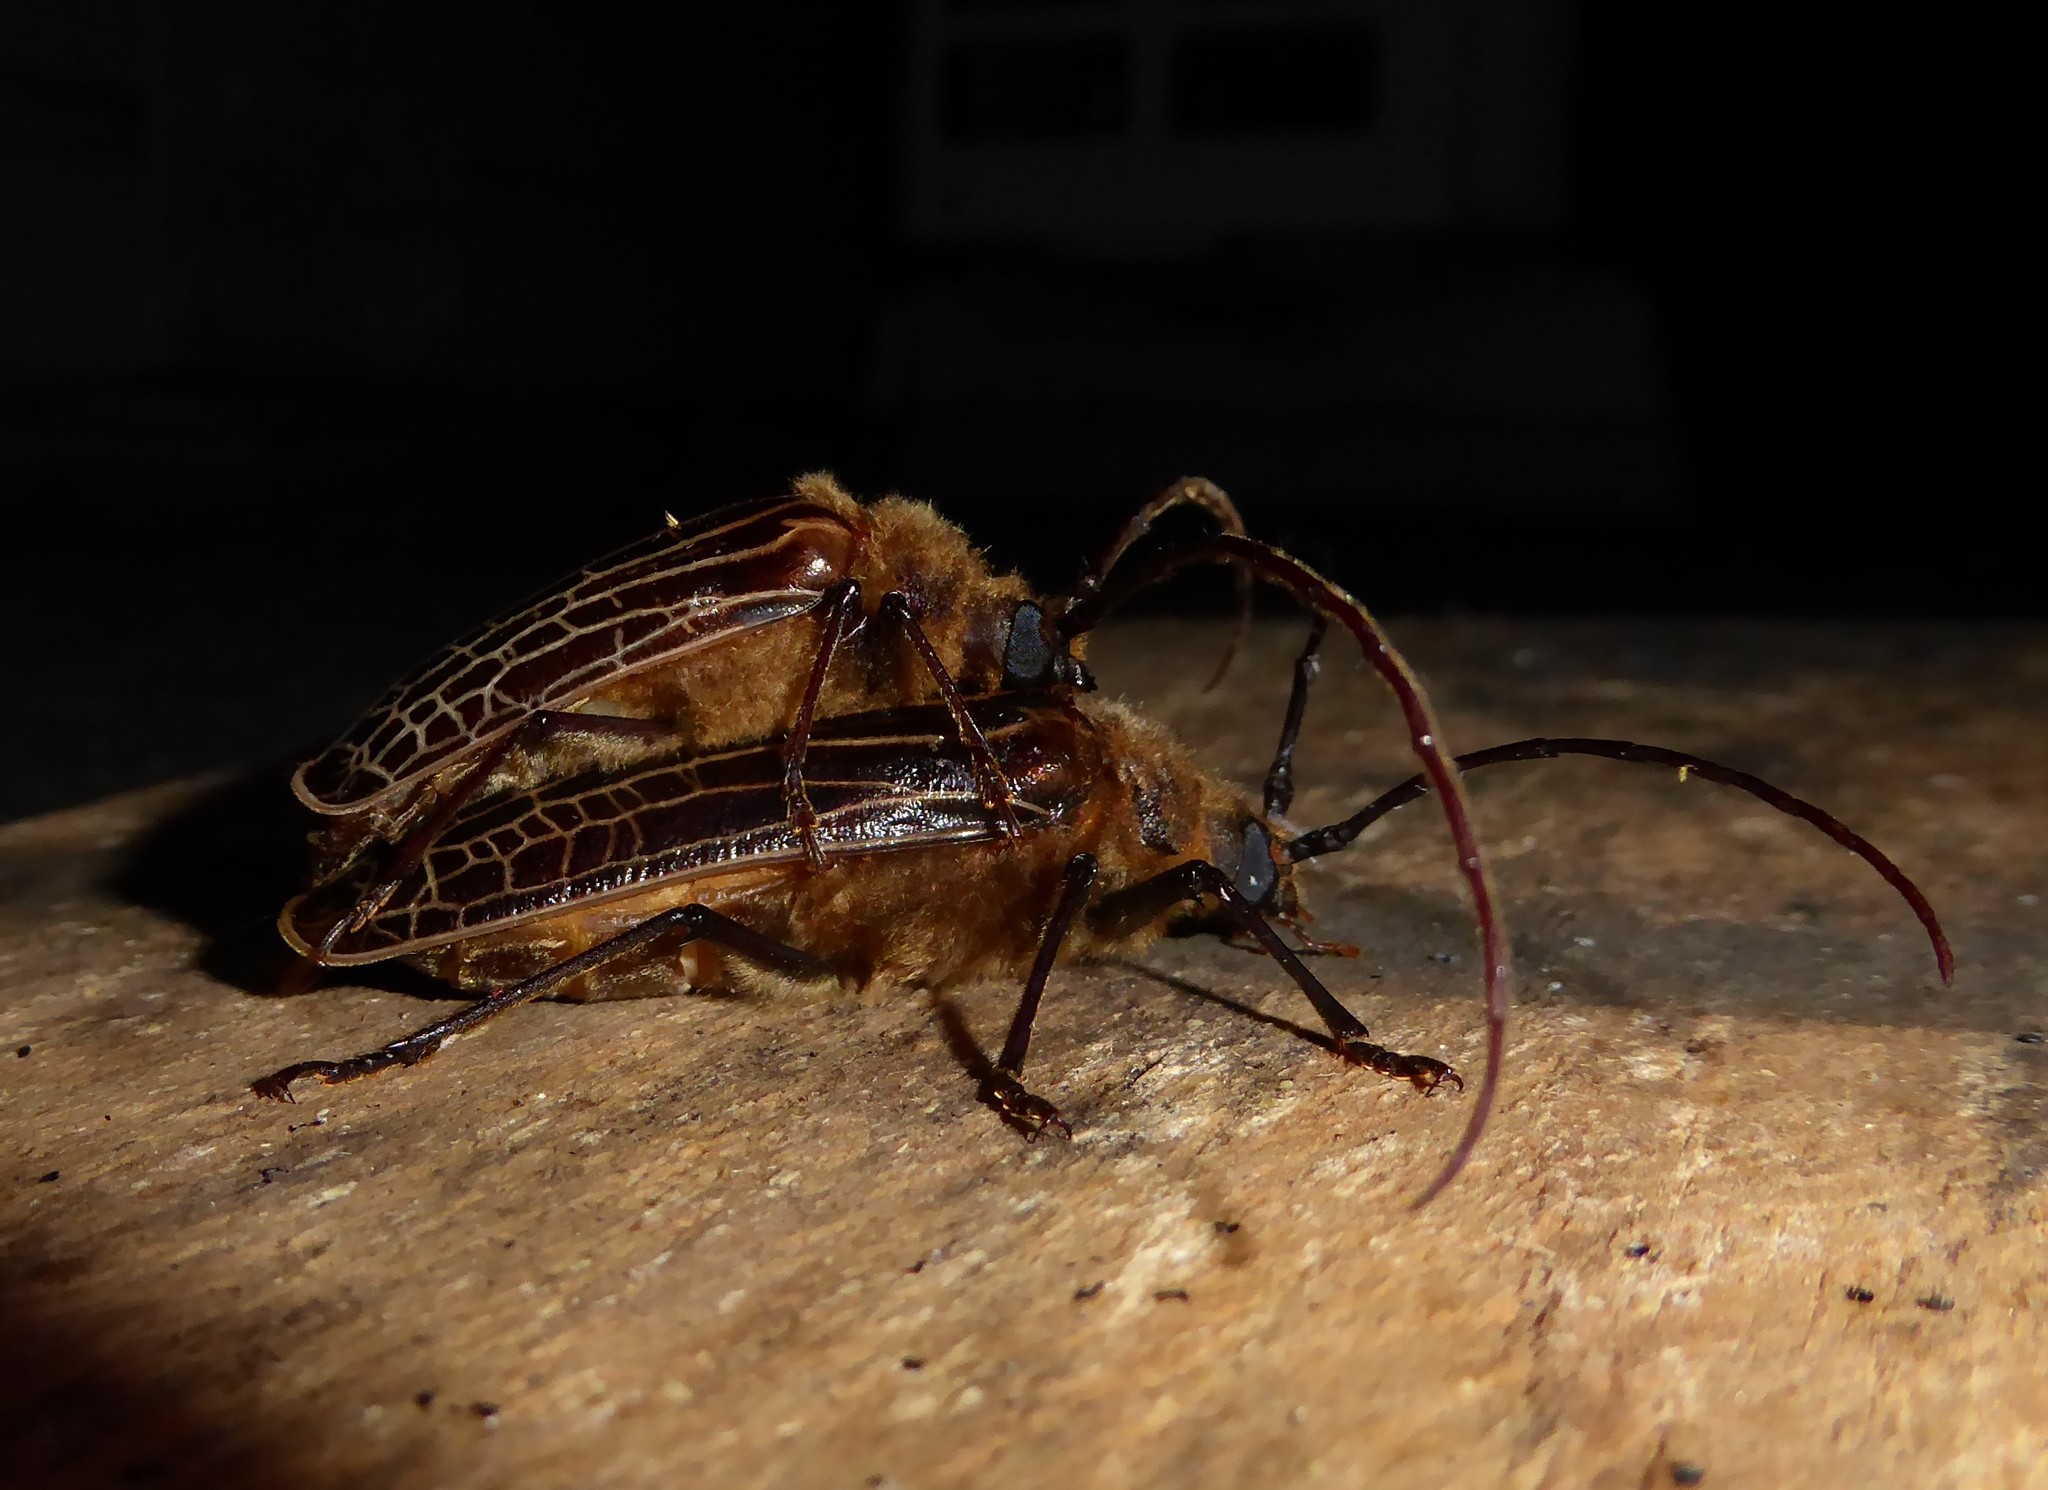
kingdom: Animalia
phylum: Arthropoda
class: Insecta
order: Coleoptera
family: Cerambycidae
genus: Prionoplus
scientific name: Prionoplus reticularis
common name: Huhu beetle
